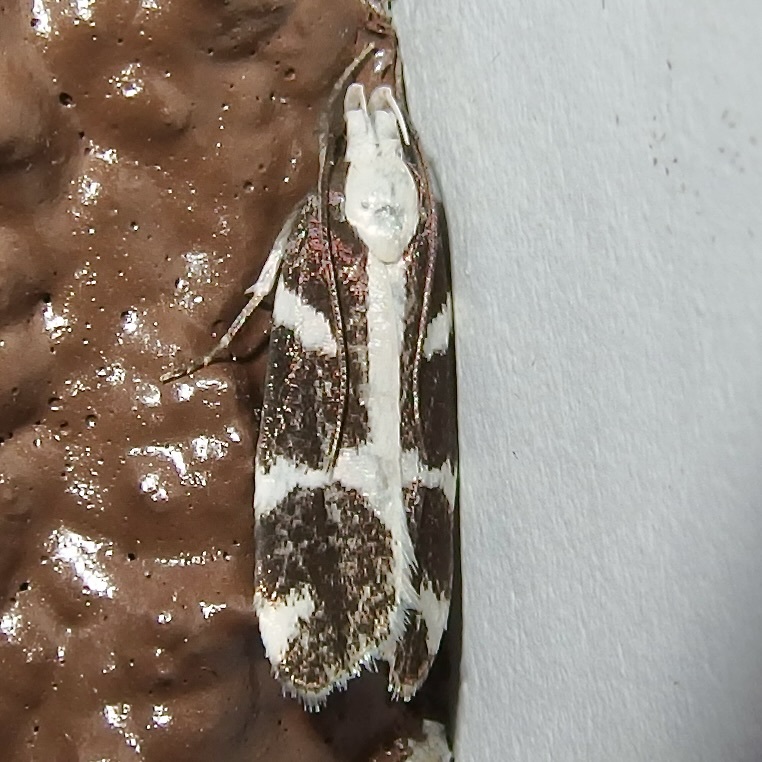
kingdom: Animalia
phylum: Arthropoda
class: Insecta
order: Lepidoptera
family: Gelechiidae
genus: Epilechia
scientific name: Epilechia catalinella
